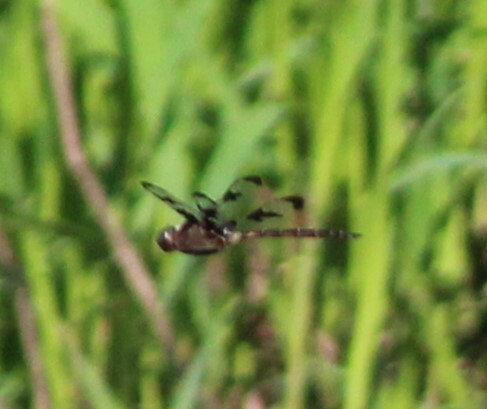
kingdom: Animalia
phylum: Arthropoda
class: Insecta
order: Odonata
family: Corduliidae
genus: Epitheca
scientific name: Epitheca princeps
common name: Prince baskettail
